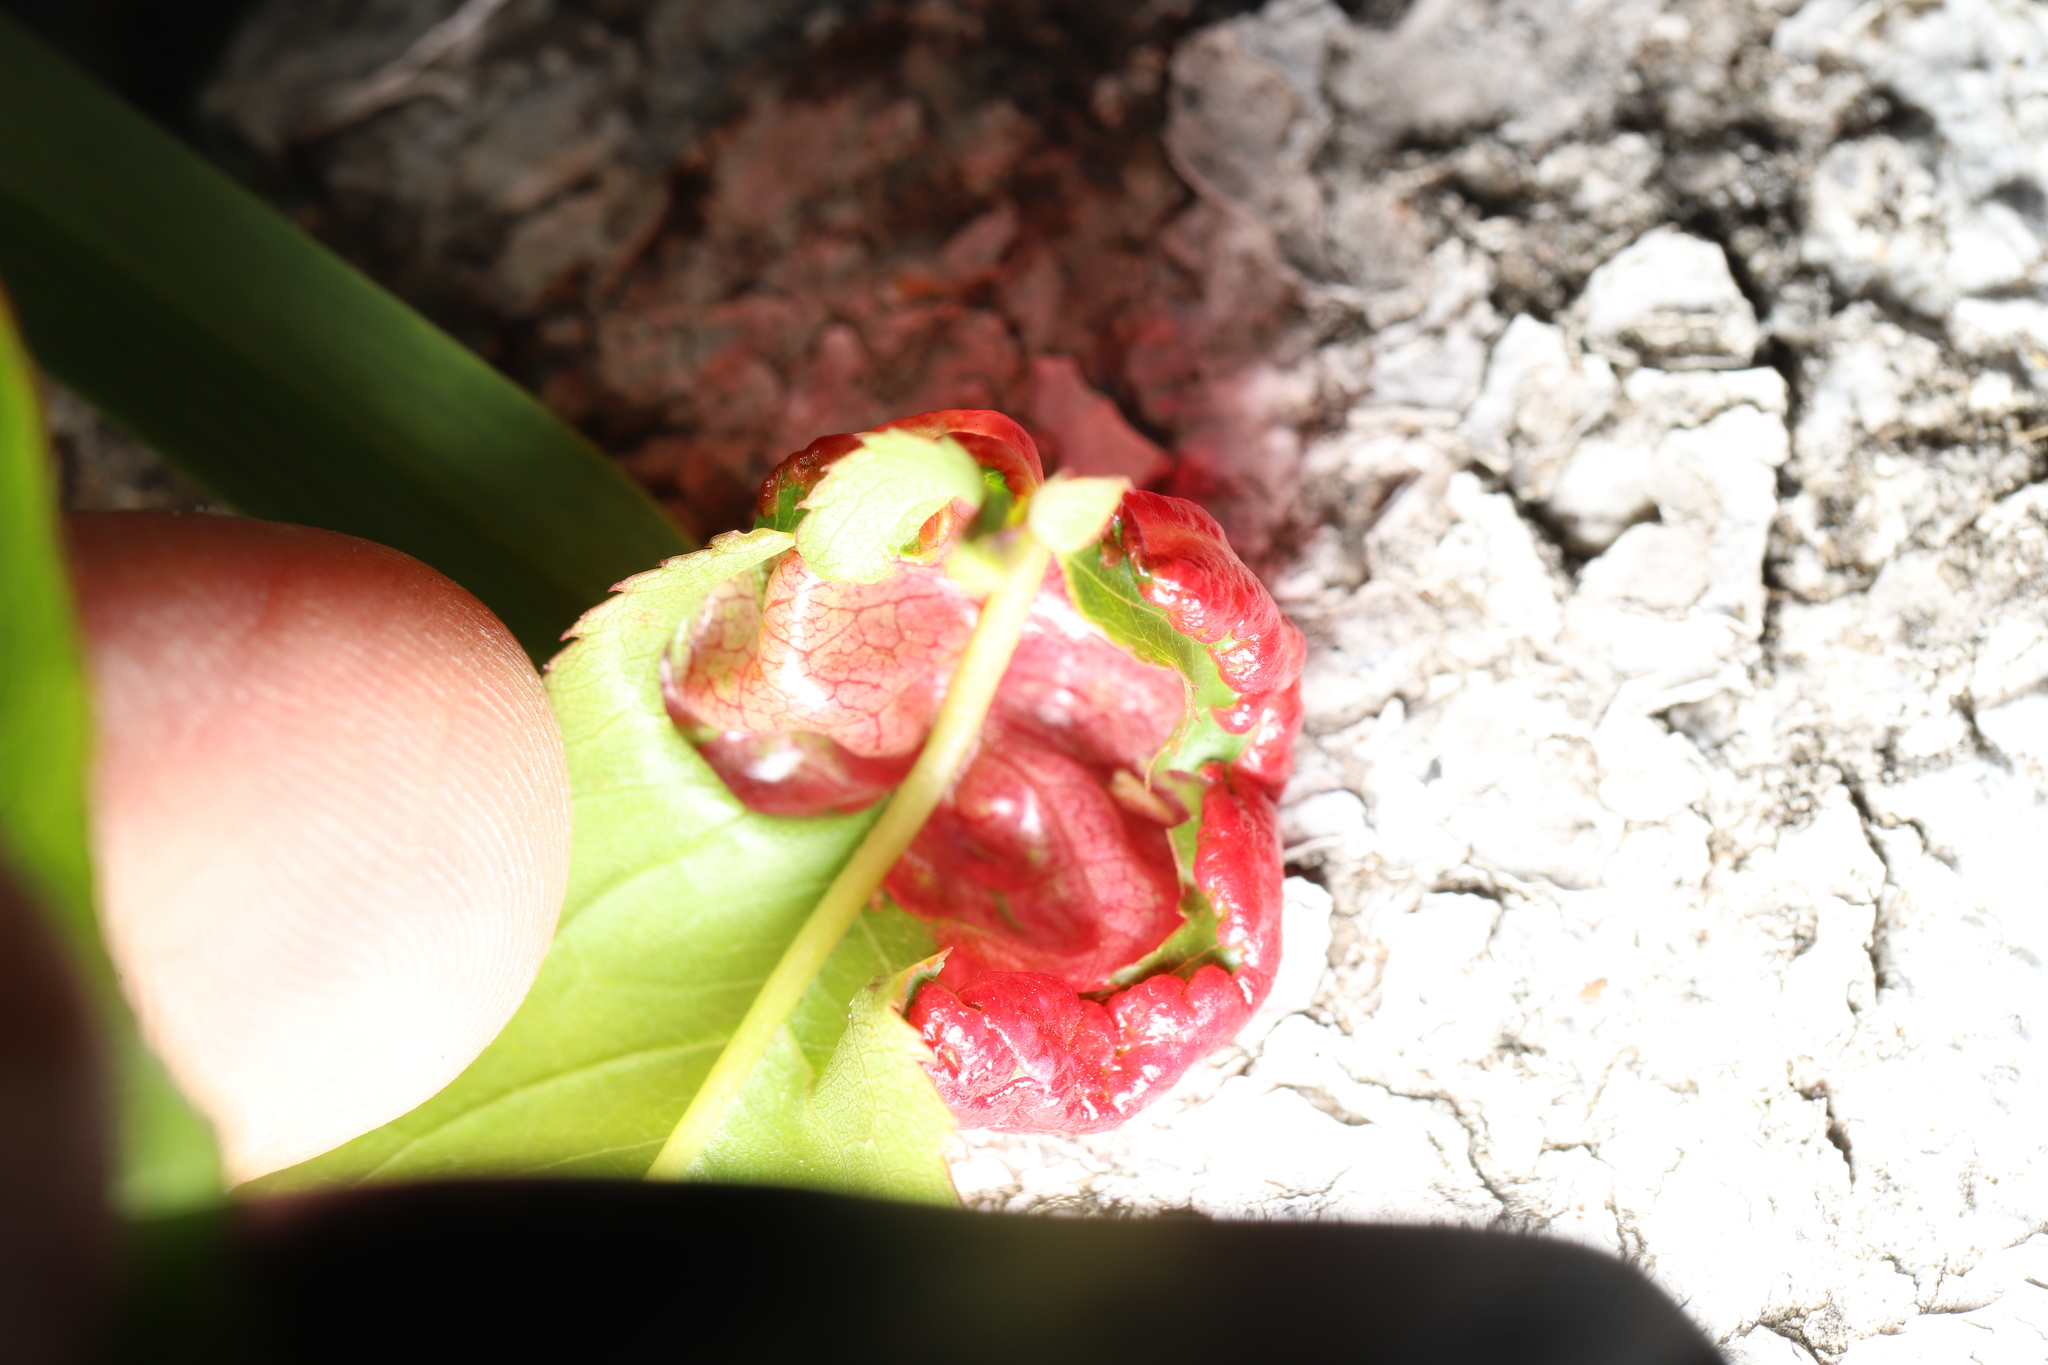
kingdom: Fungi
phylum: Ascomycota
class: Taphrinomycetes
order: Taphrinales
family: Taphrinaceae
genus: Taphrina
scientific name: Taphrina deformans
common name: Peach leaf curl
